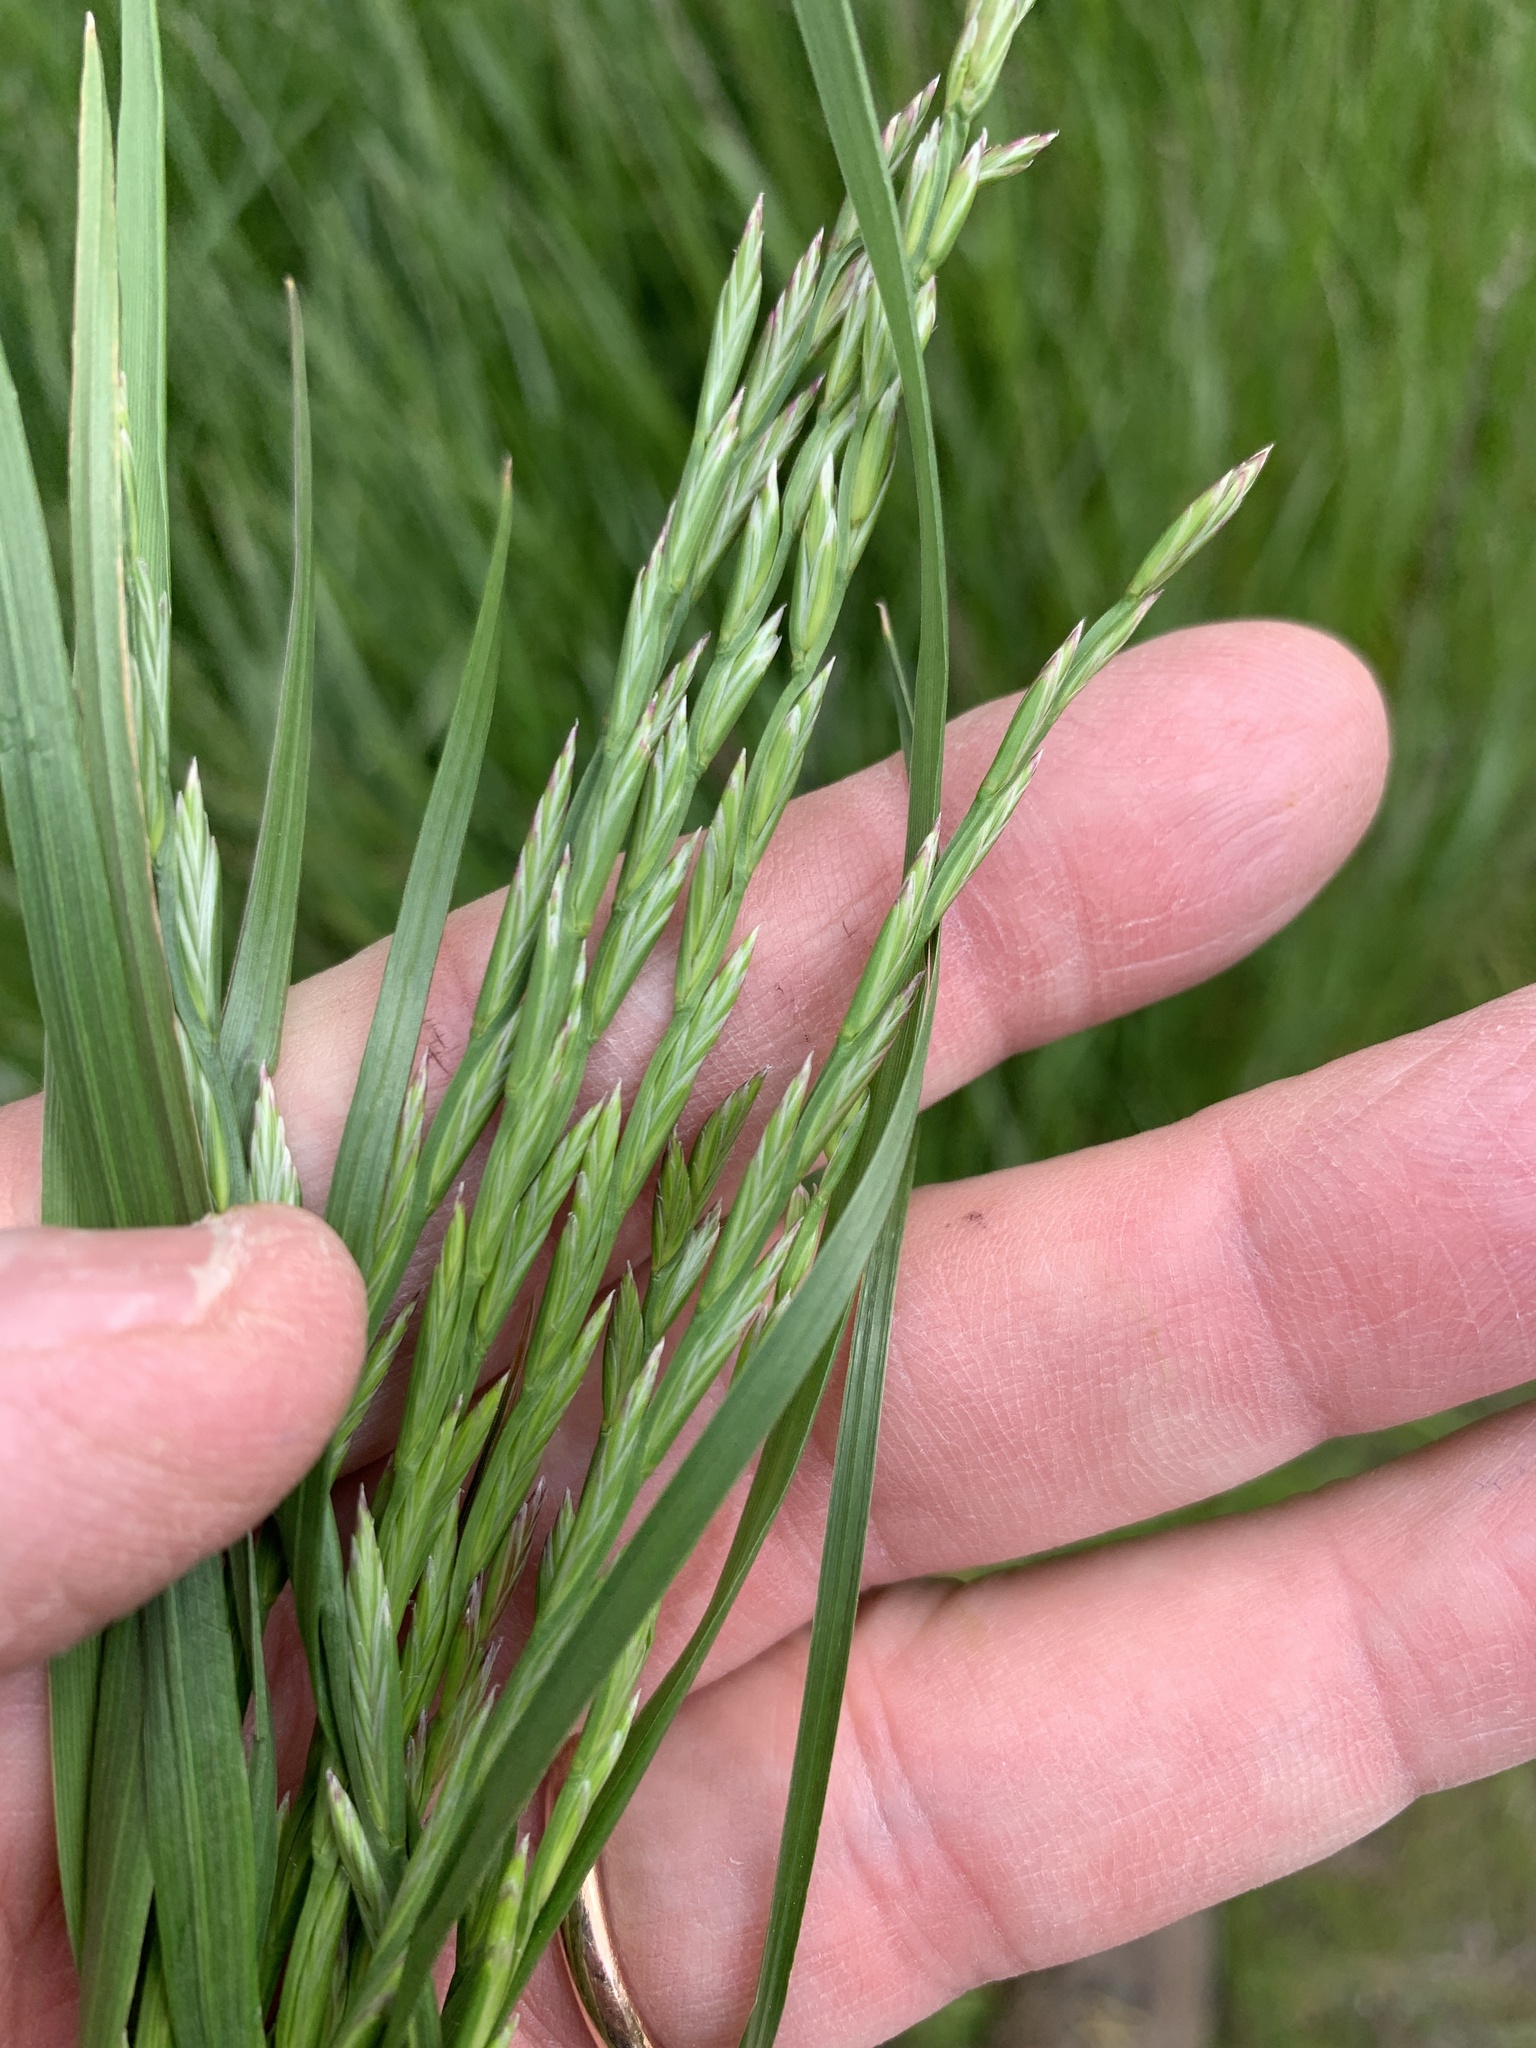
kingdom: Plantae
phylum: Tracheophyta
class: Liliopsida
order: Poales
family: Poaceae
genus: Lolium
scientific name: Lolium perenne
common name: Perennial ryegrass
